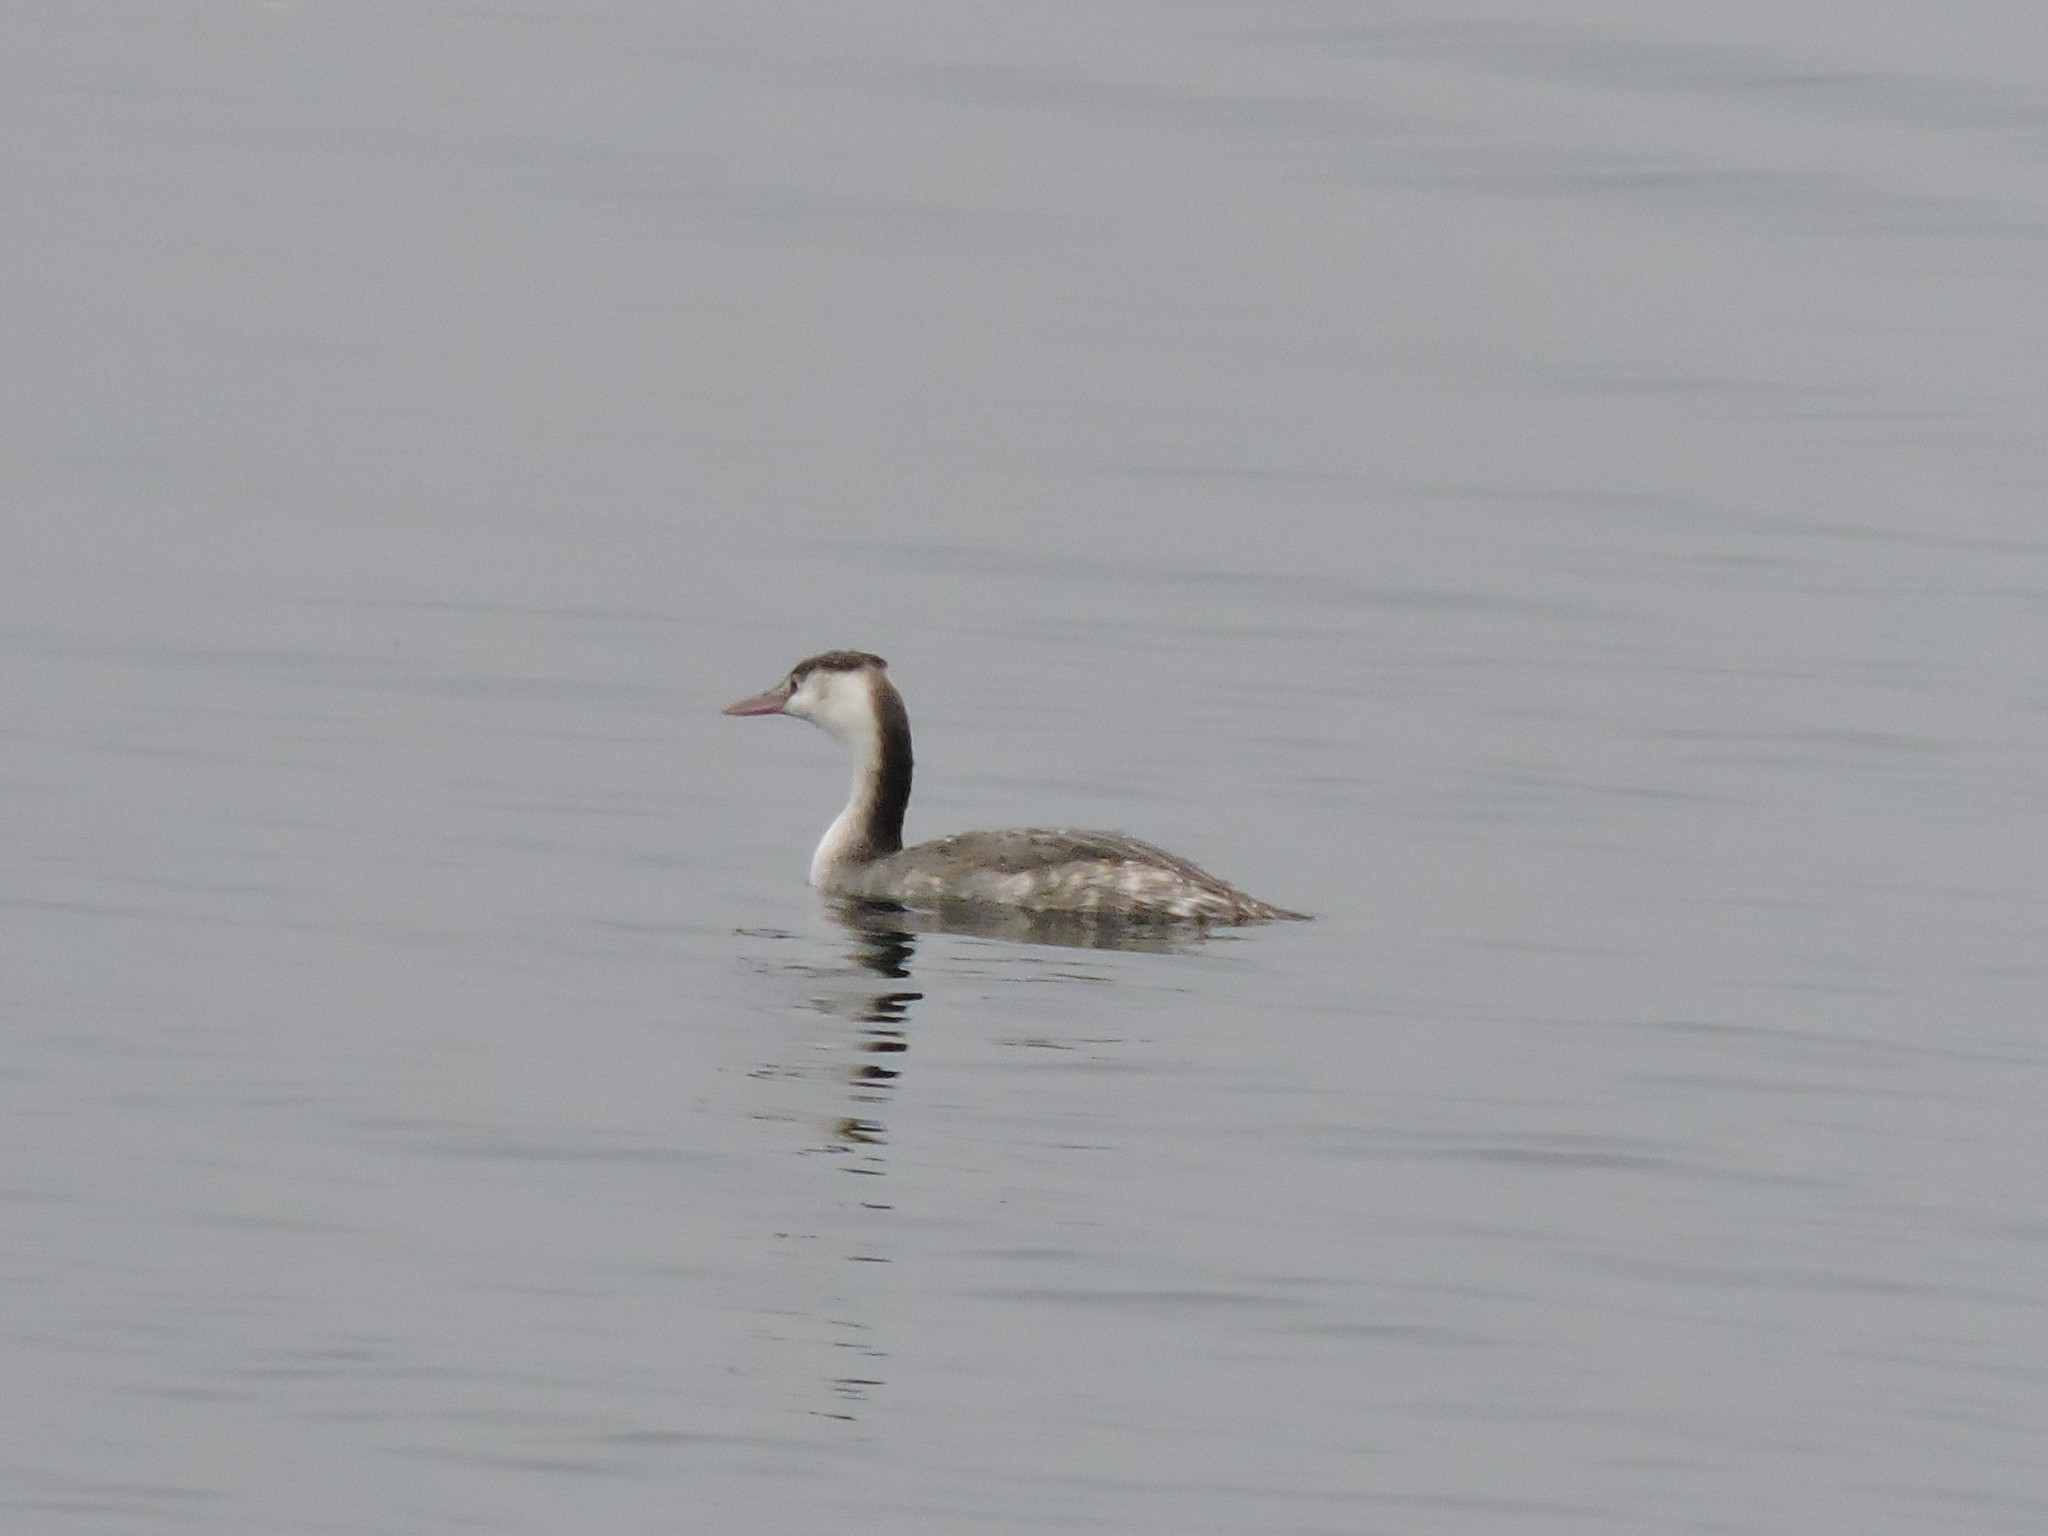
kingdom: Animalia
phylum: Chordata
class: Aves
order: Podicipediformes
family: Podicipedidae
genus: Podiceps
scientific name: Podiceps cristatus
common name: Great crested grebe
